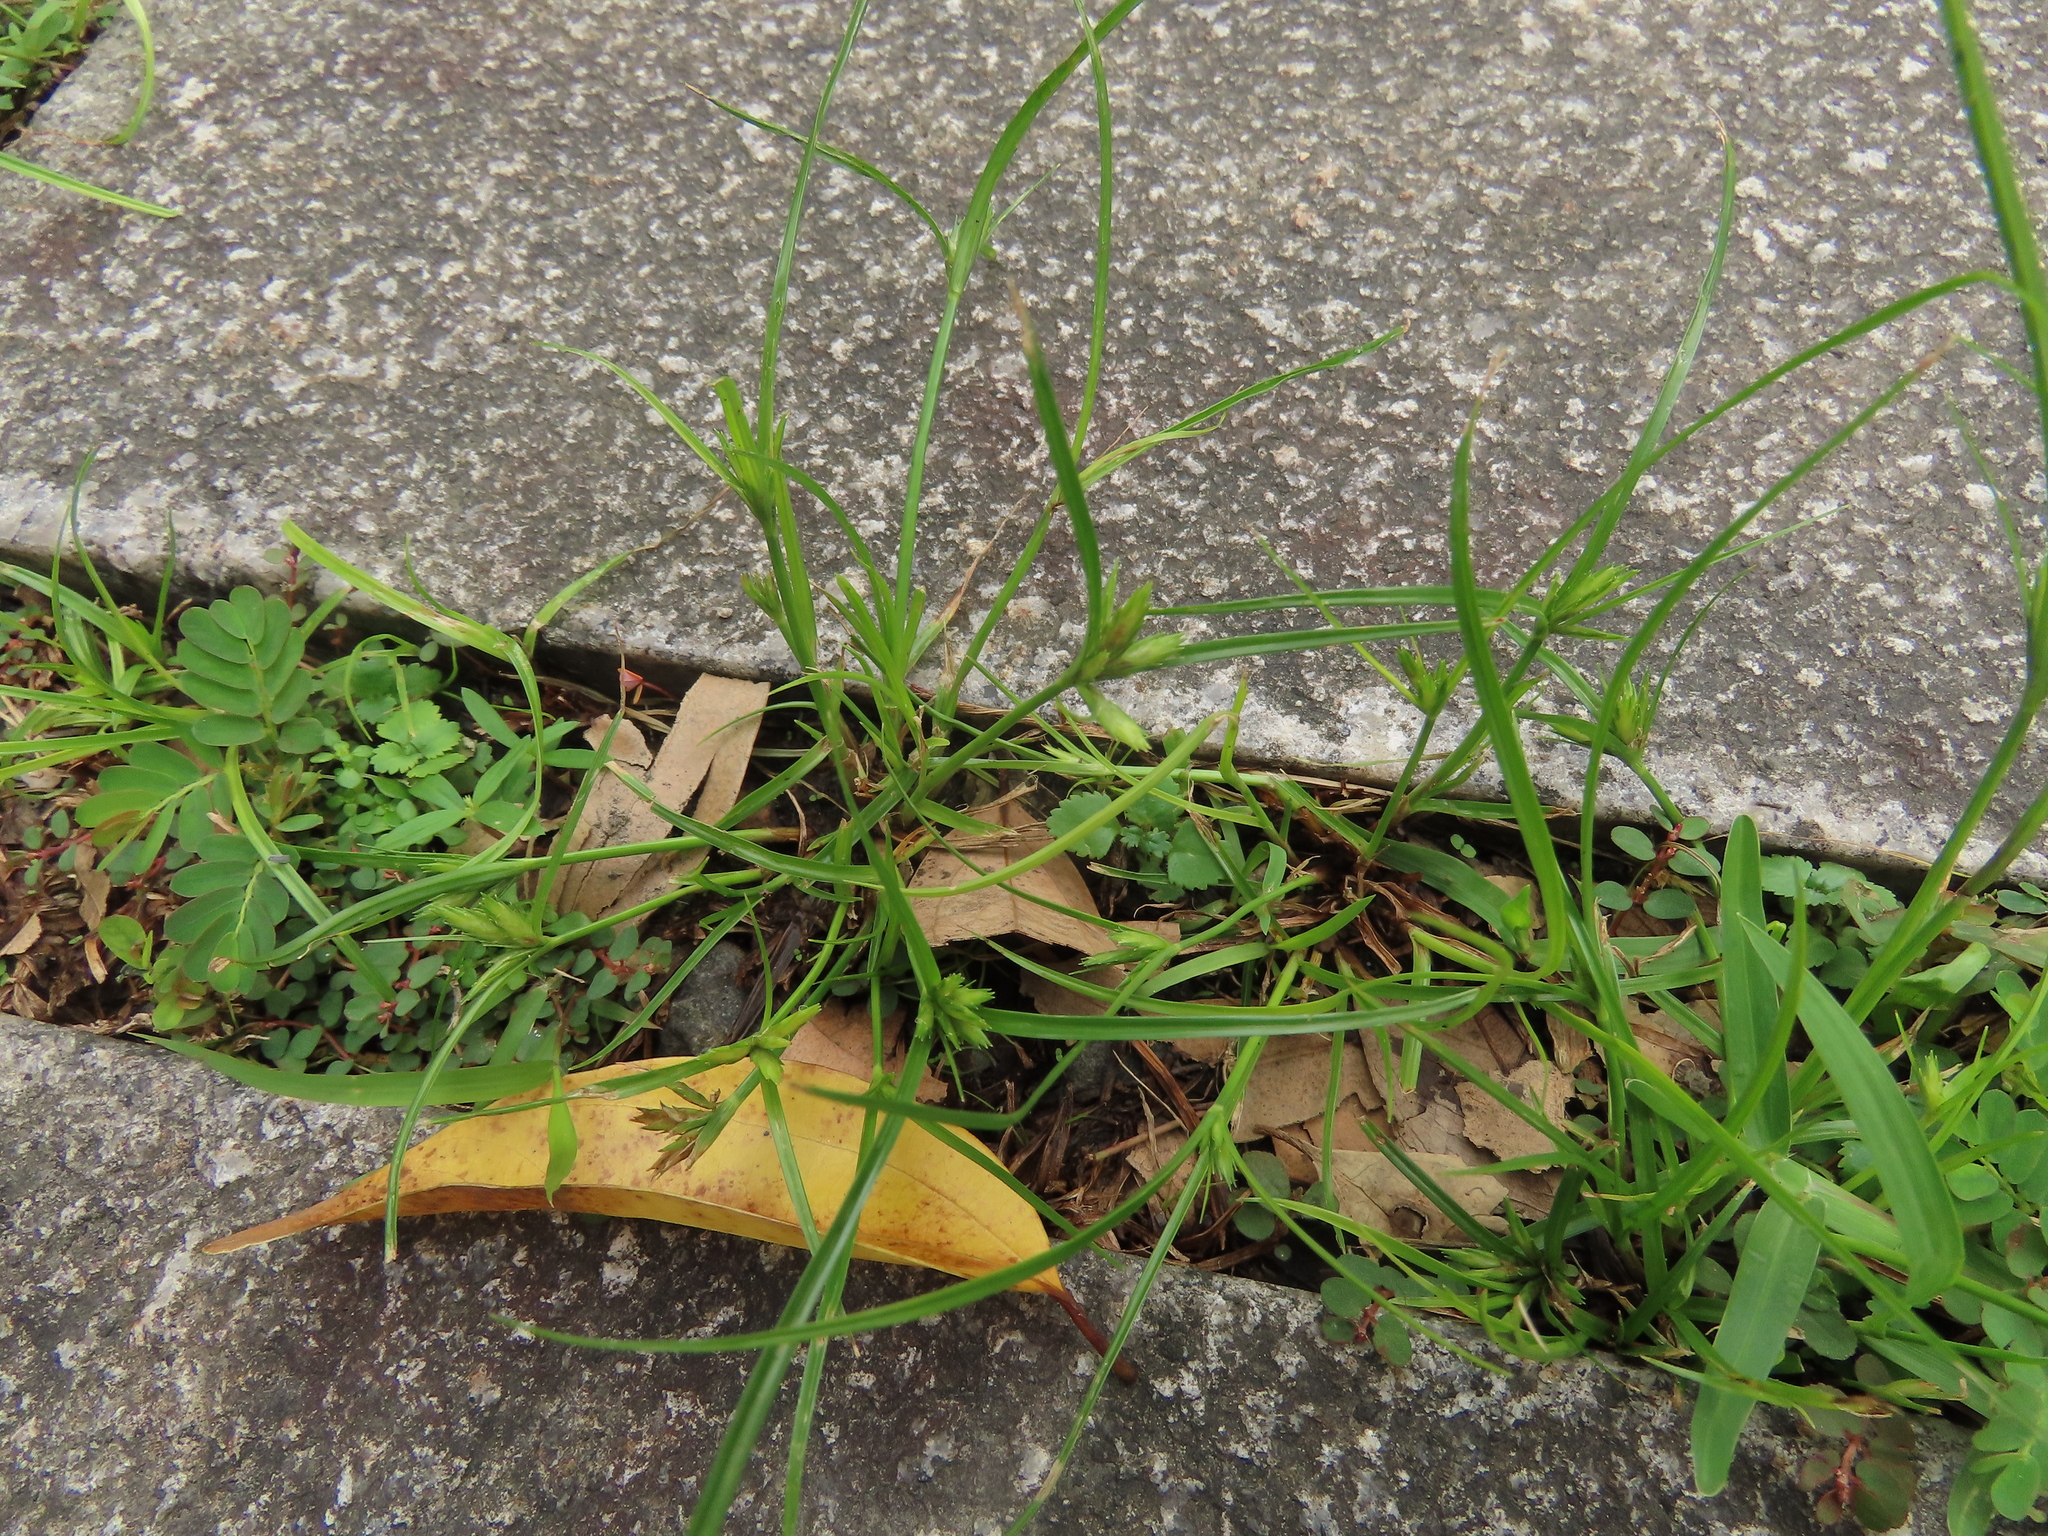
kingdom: Plantae
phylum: Tracheophyta
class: Liliopsida
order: Poales
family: Cyperaceae
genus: Cyperus
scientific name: Cyperus compressus
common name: Poorland flatsedge
